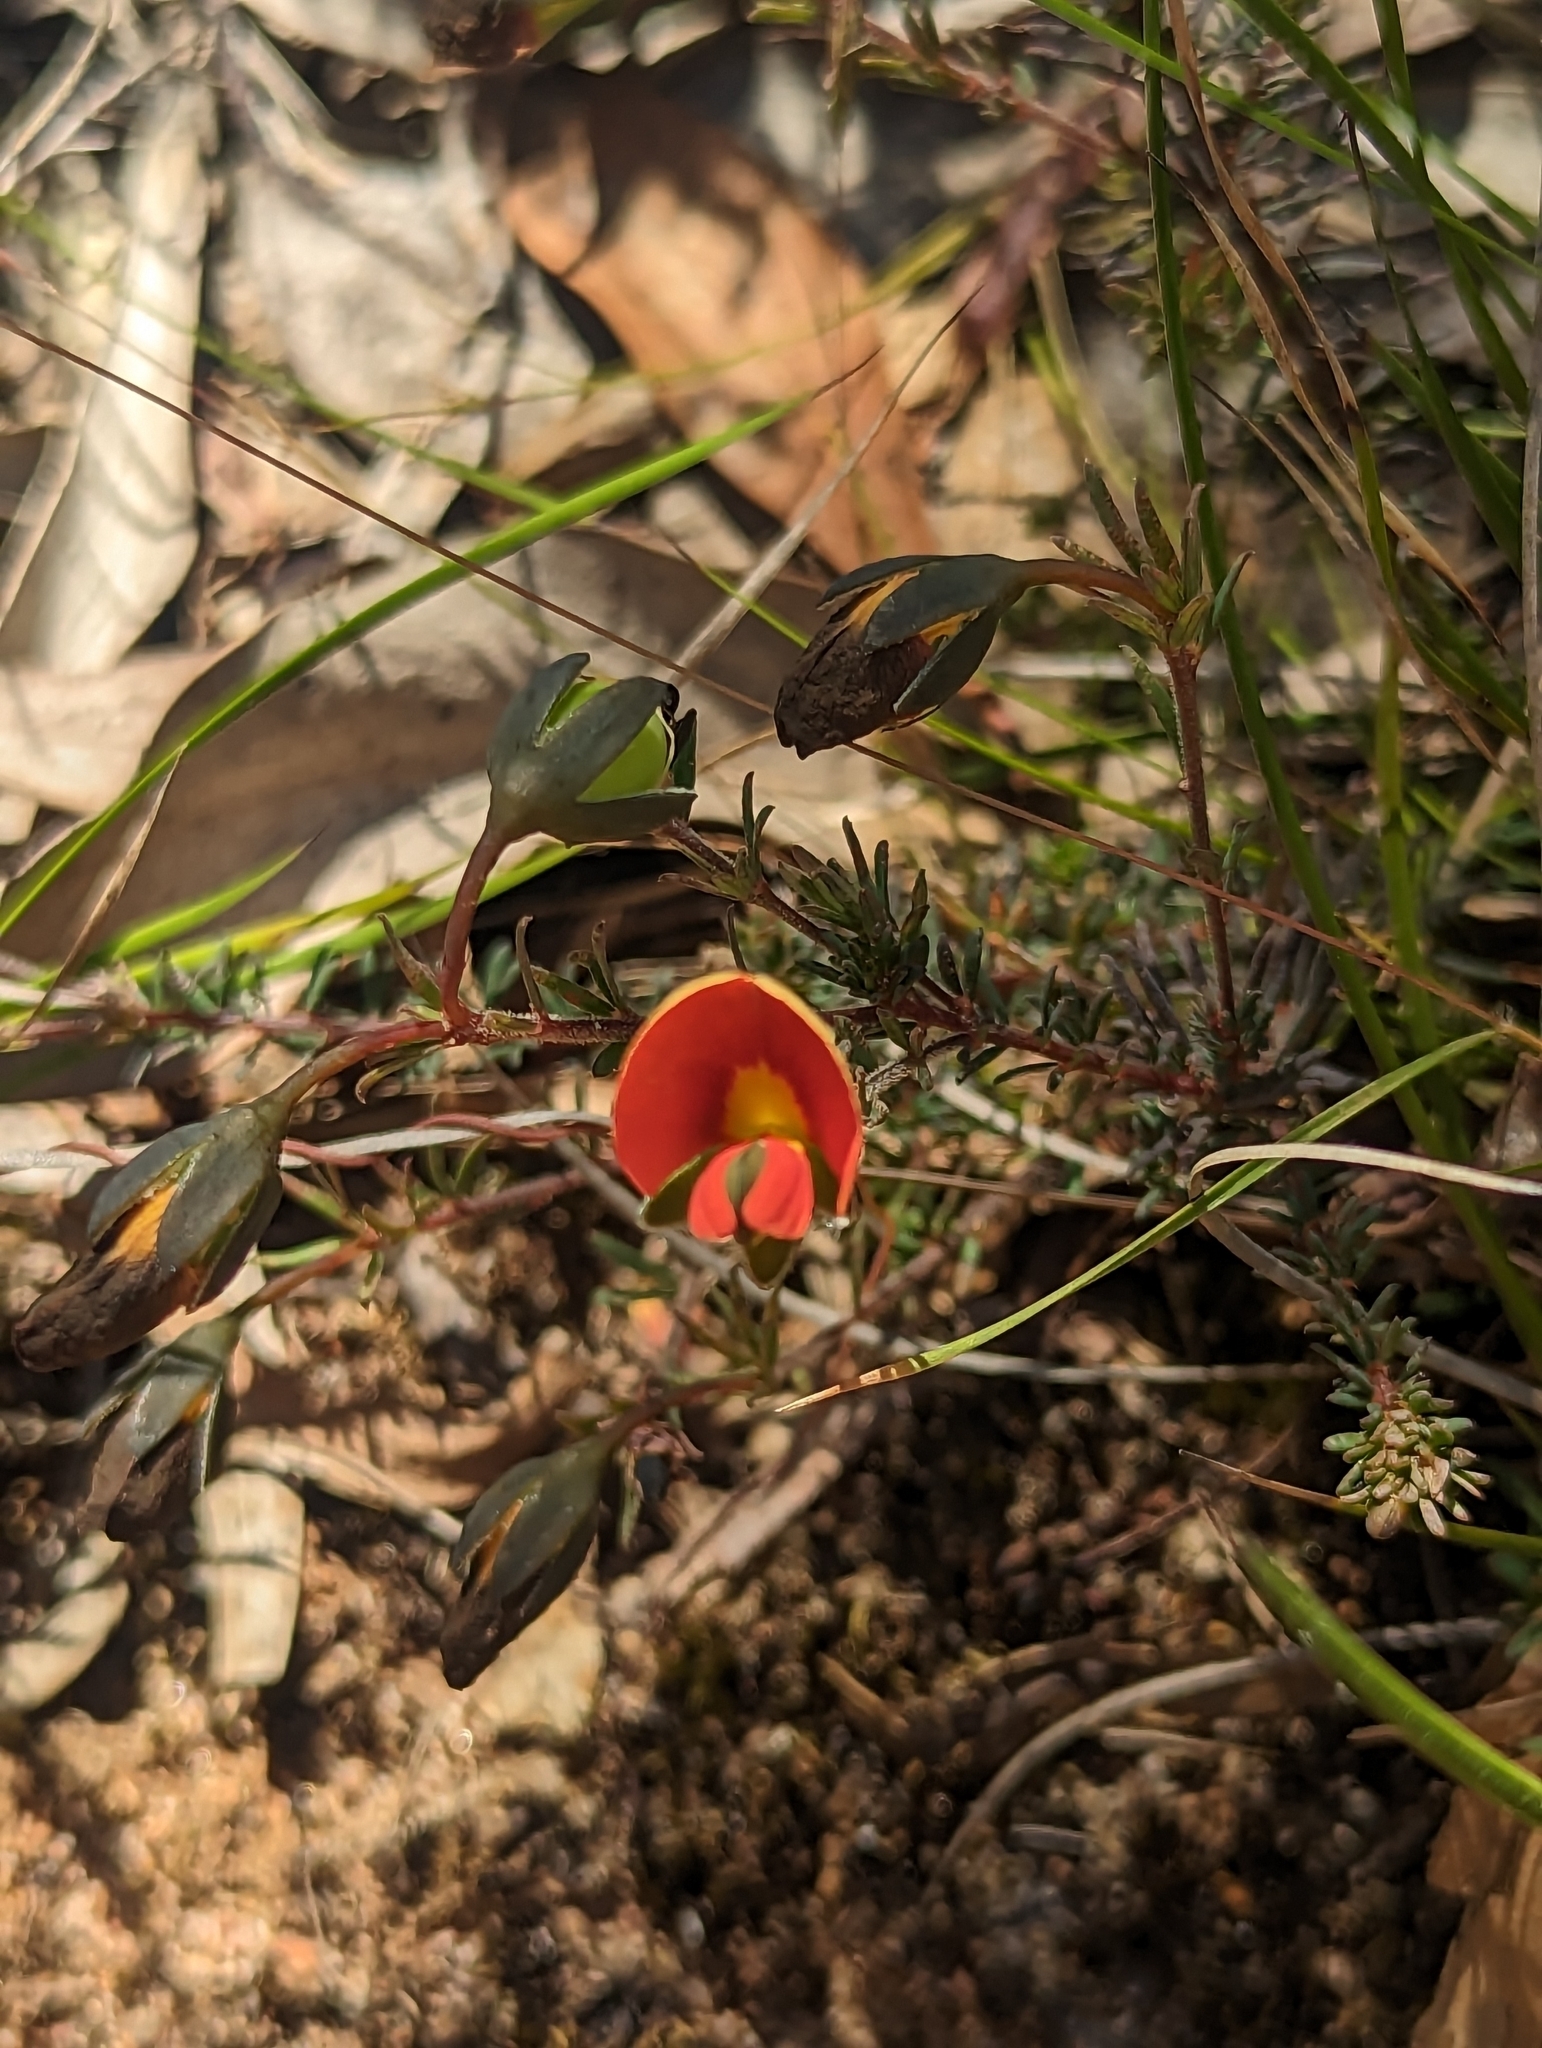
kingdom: Plantae
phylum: Tracheophyta
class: Magnoliopsida
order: Fabales
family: Fabaceae
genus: Gompholobium
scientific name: Gompholobium ecostatum
